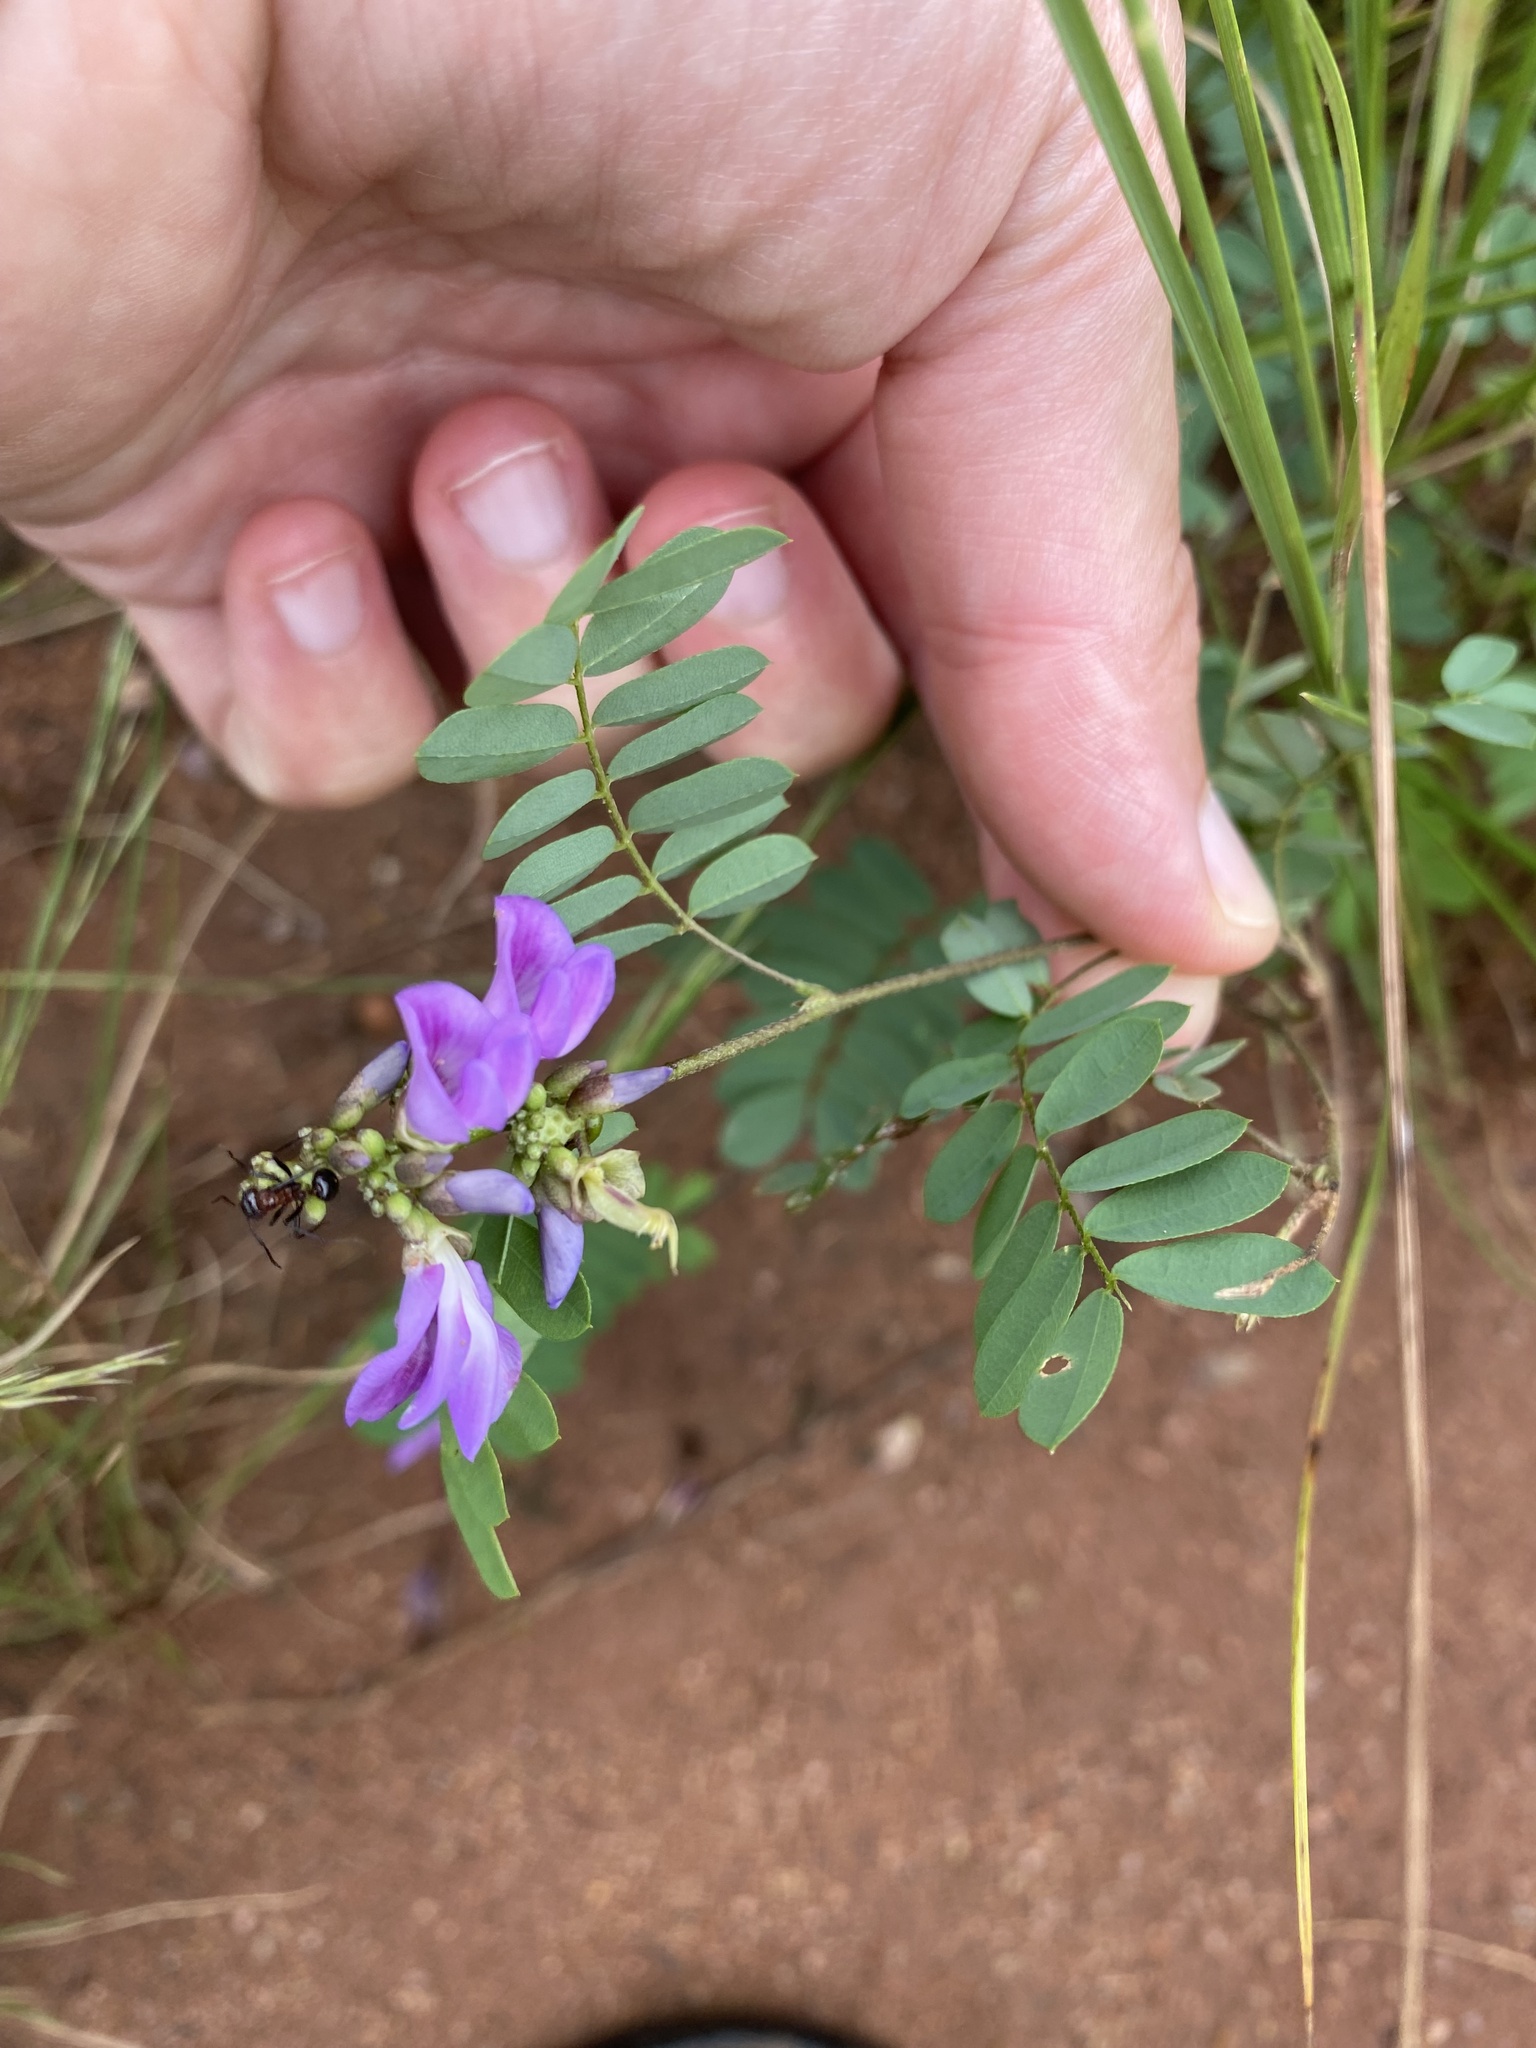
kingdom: Plantae
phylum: Tracheophyta
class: Magnoliopsida
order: Fabales
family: Fabaceae
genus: Abrus
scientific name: Abrus laevigatus
